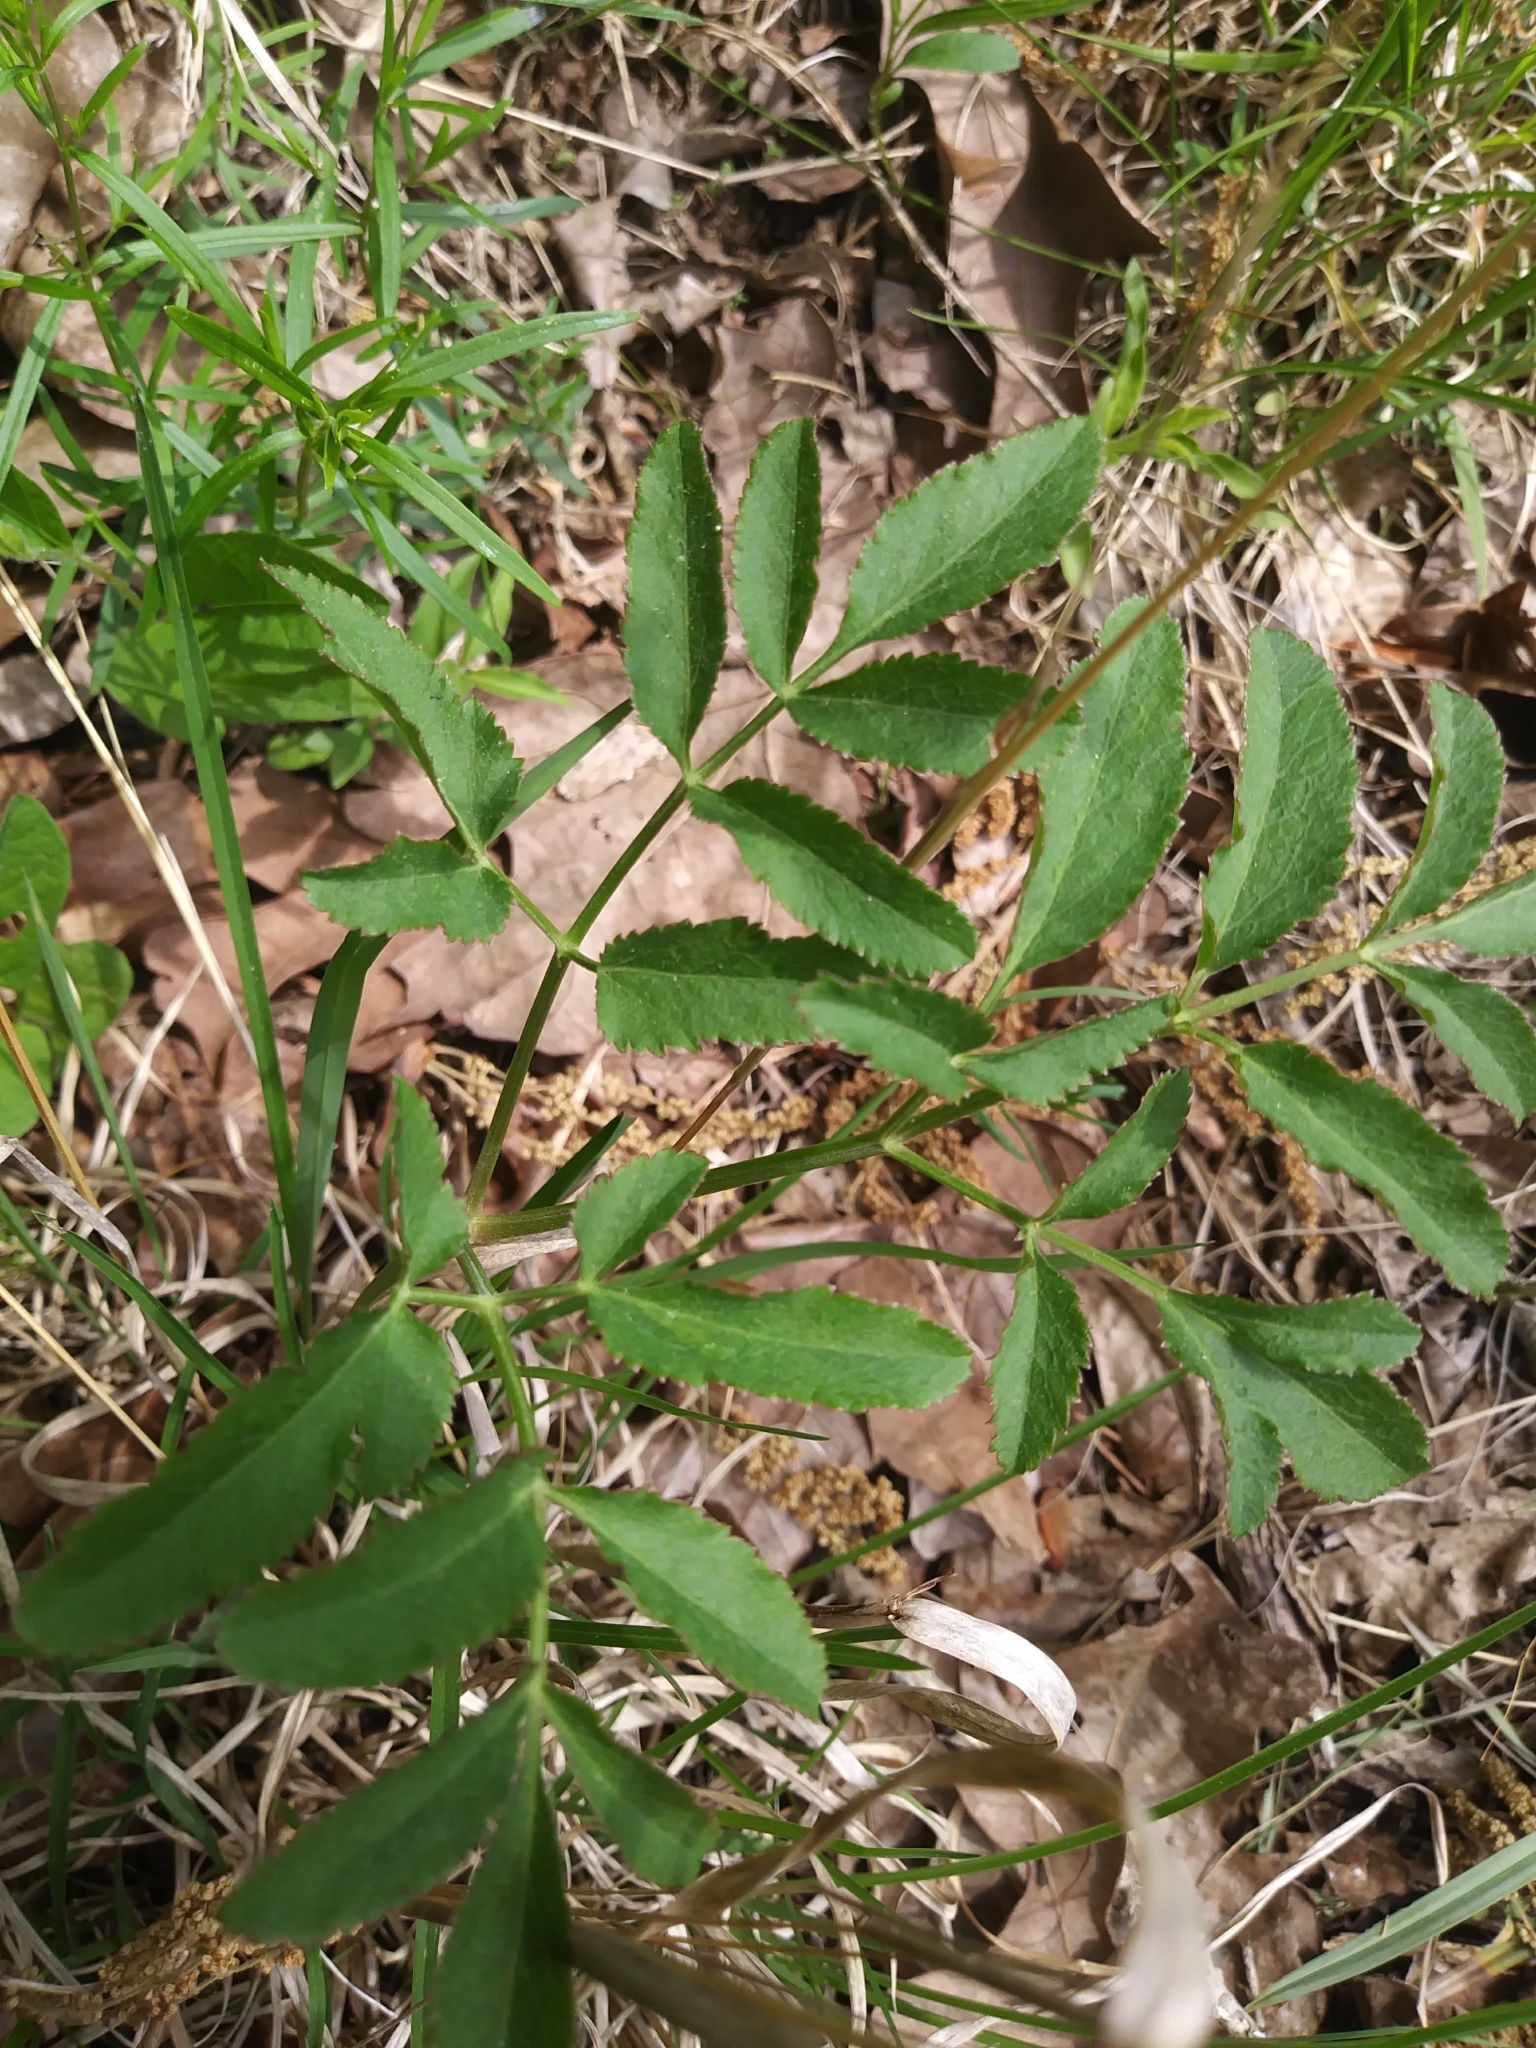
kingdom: Plantae
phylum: Tracheophyta
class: Magnoliopsida
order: Apiales
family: Apiaceae
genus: Angelica
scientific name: Angelica venenosa
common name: Hairy angelica
